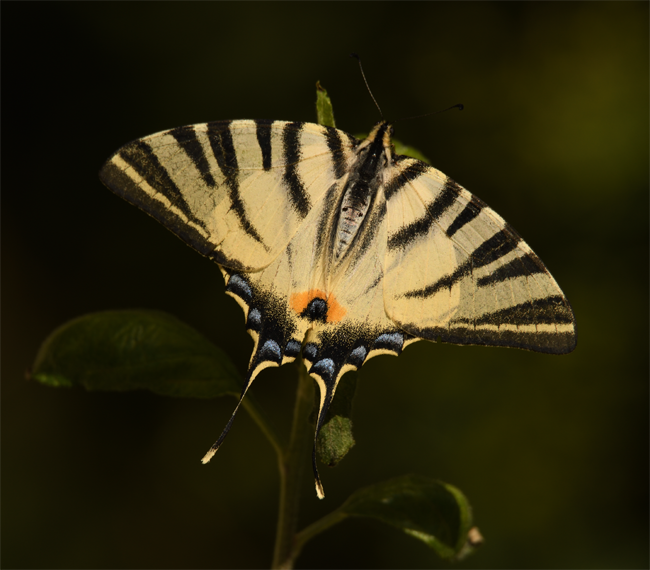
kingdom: Animalia
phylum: Arthropoda
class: Insecta
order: Lepidoptera
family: Papilionidae
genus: Iphiclides
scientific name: Iphiclides podalirius
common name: Scarce swallowtail
